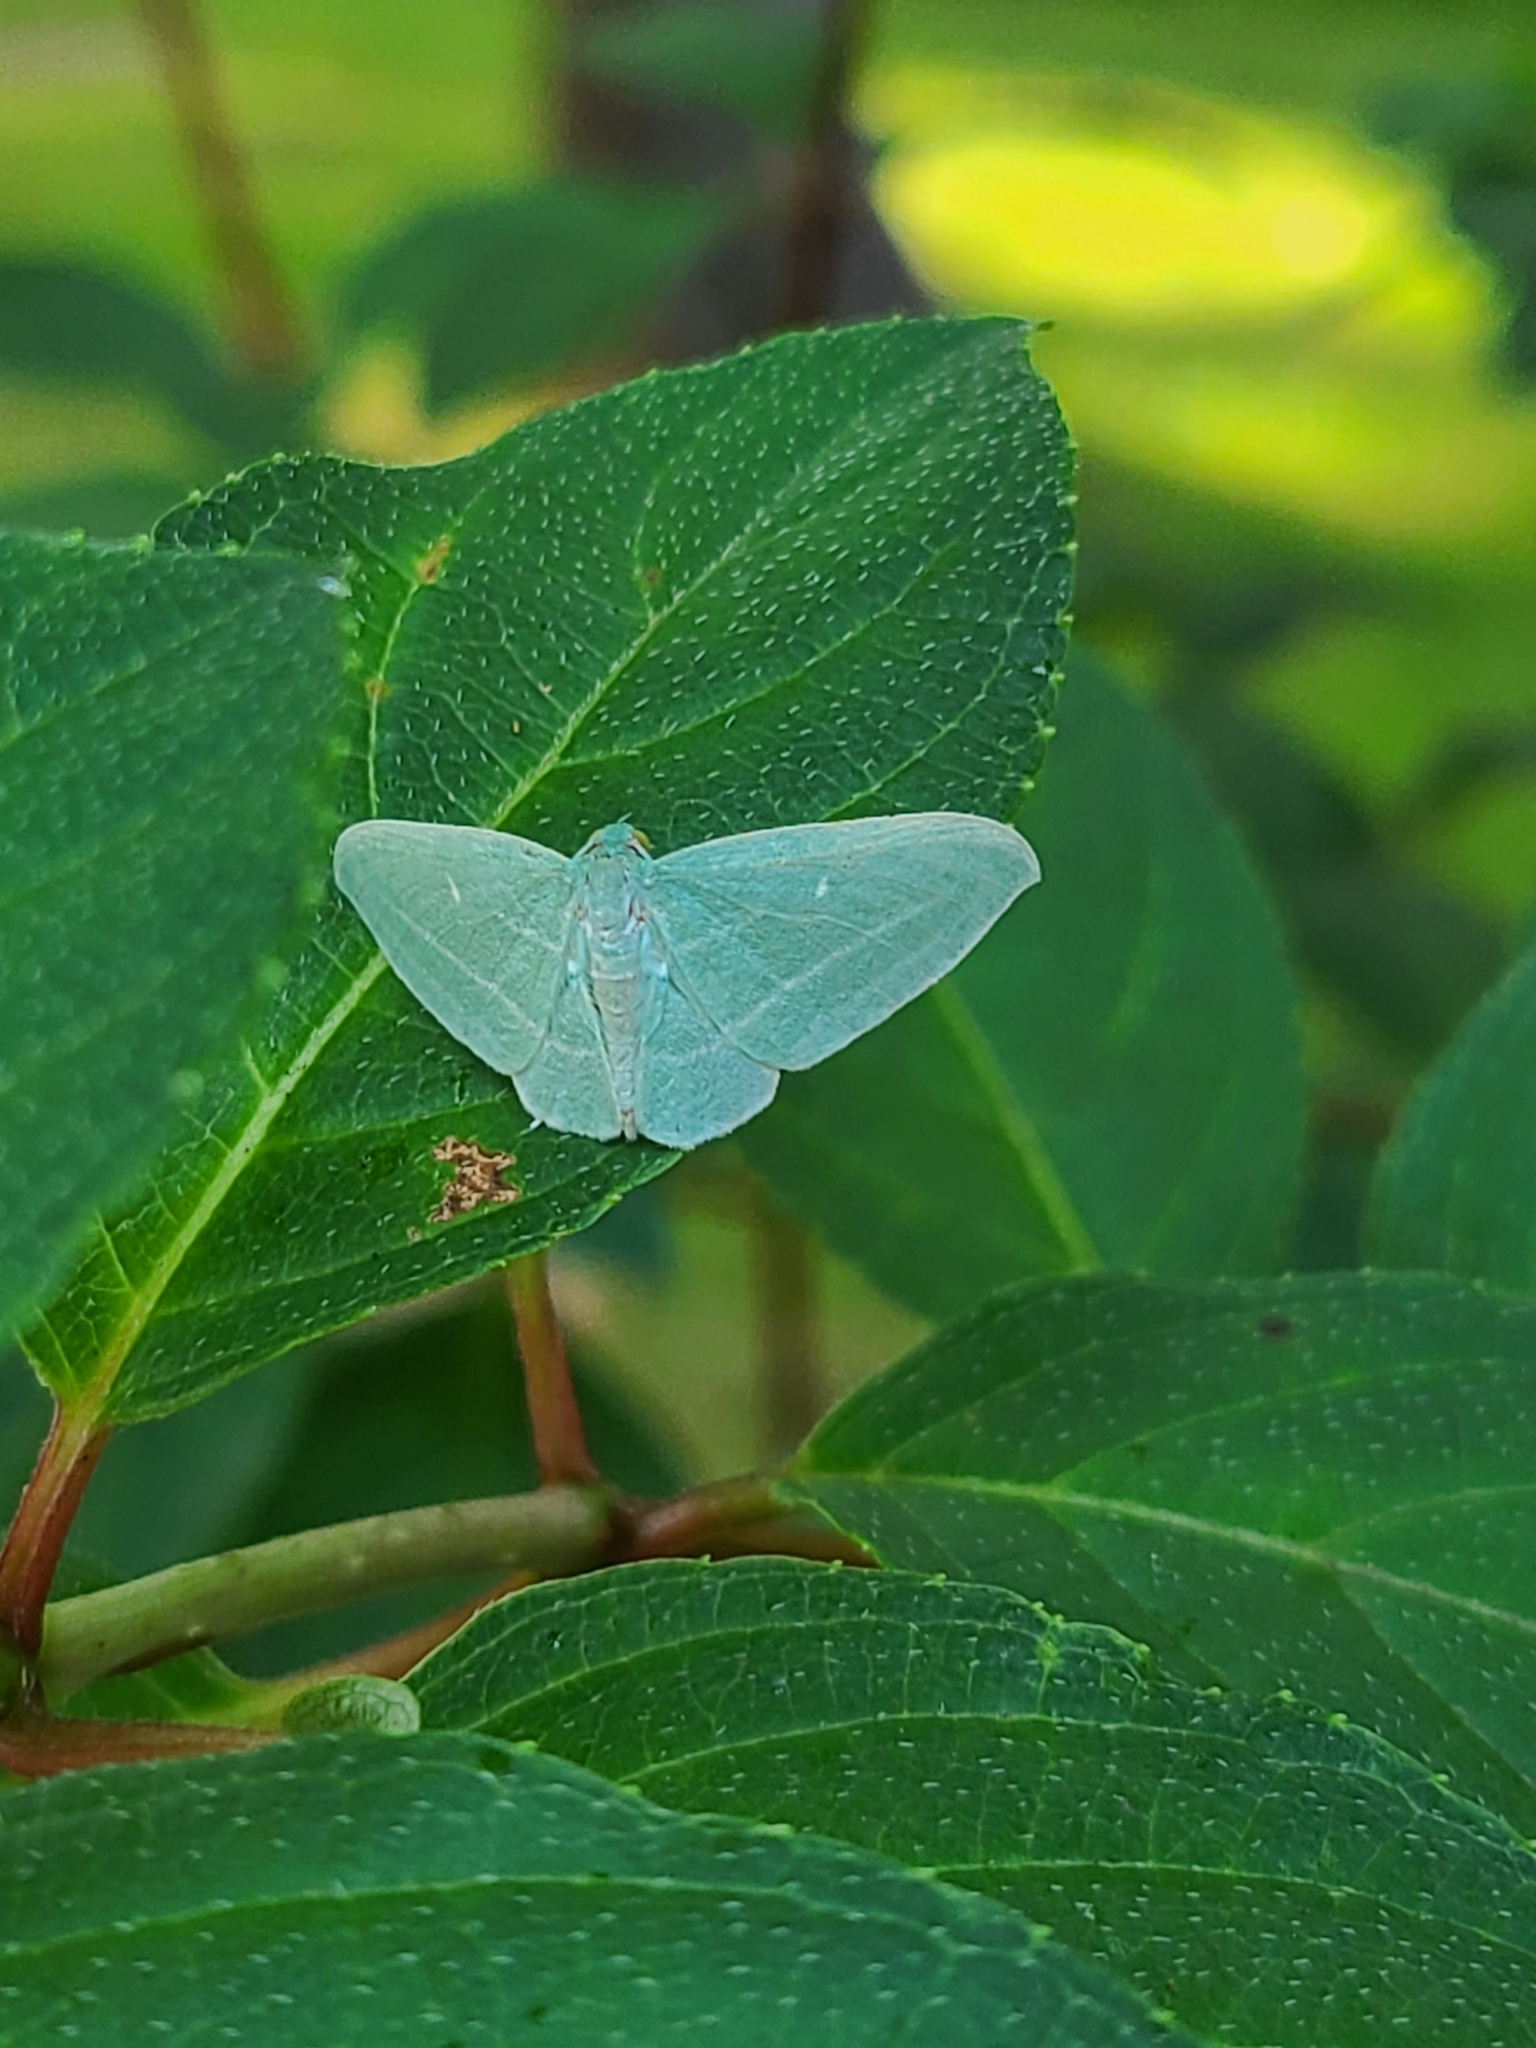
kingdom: Animalia
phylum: Arthropoda
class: Insecta
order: Lepidoptera
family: Geometridae
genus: Dyspteris
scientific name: Dyspteris abortivaria
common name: Bad-wing
